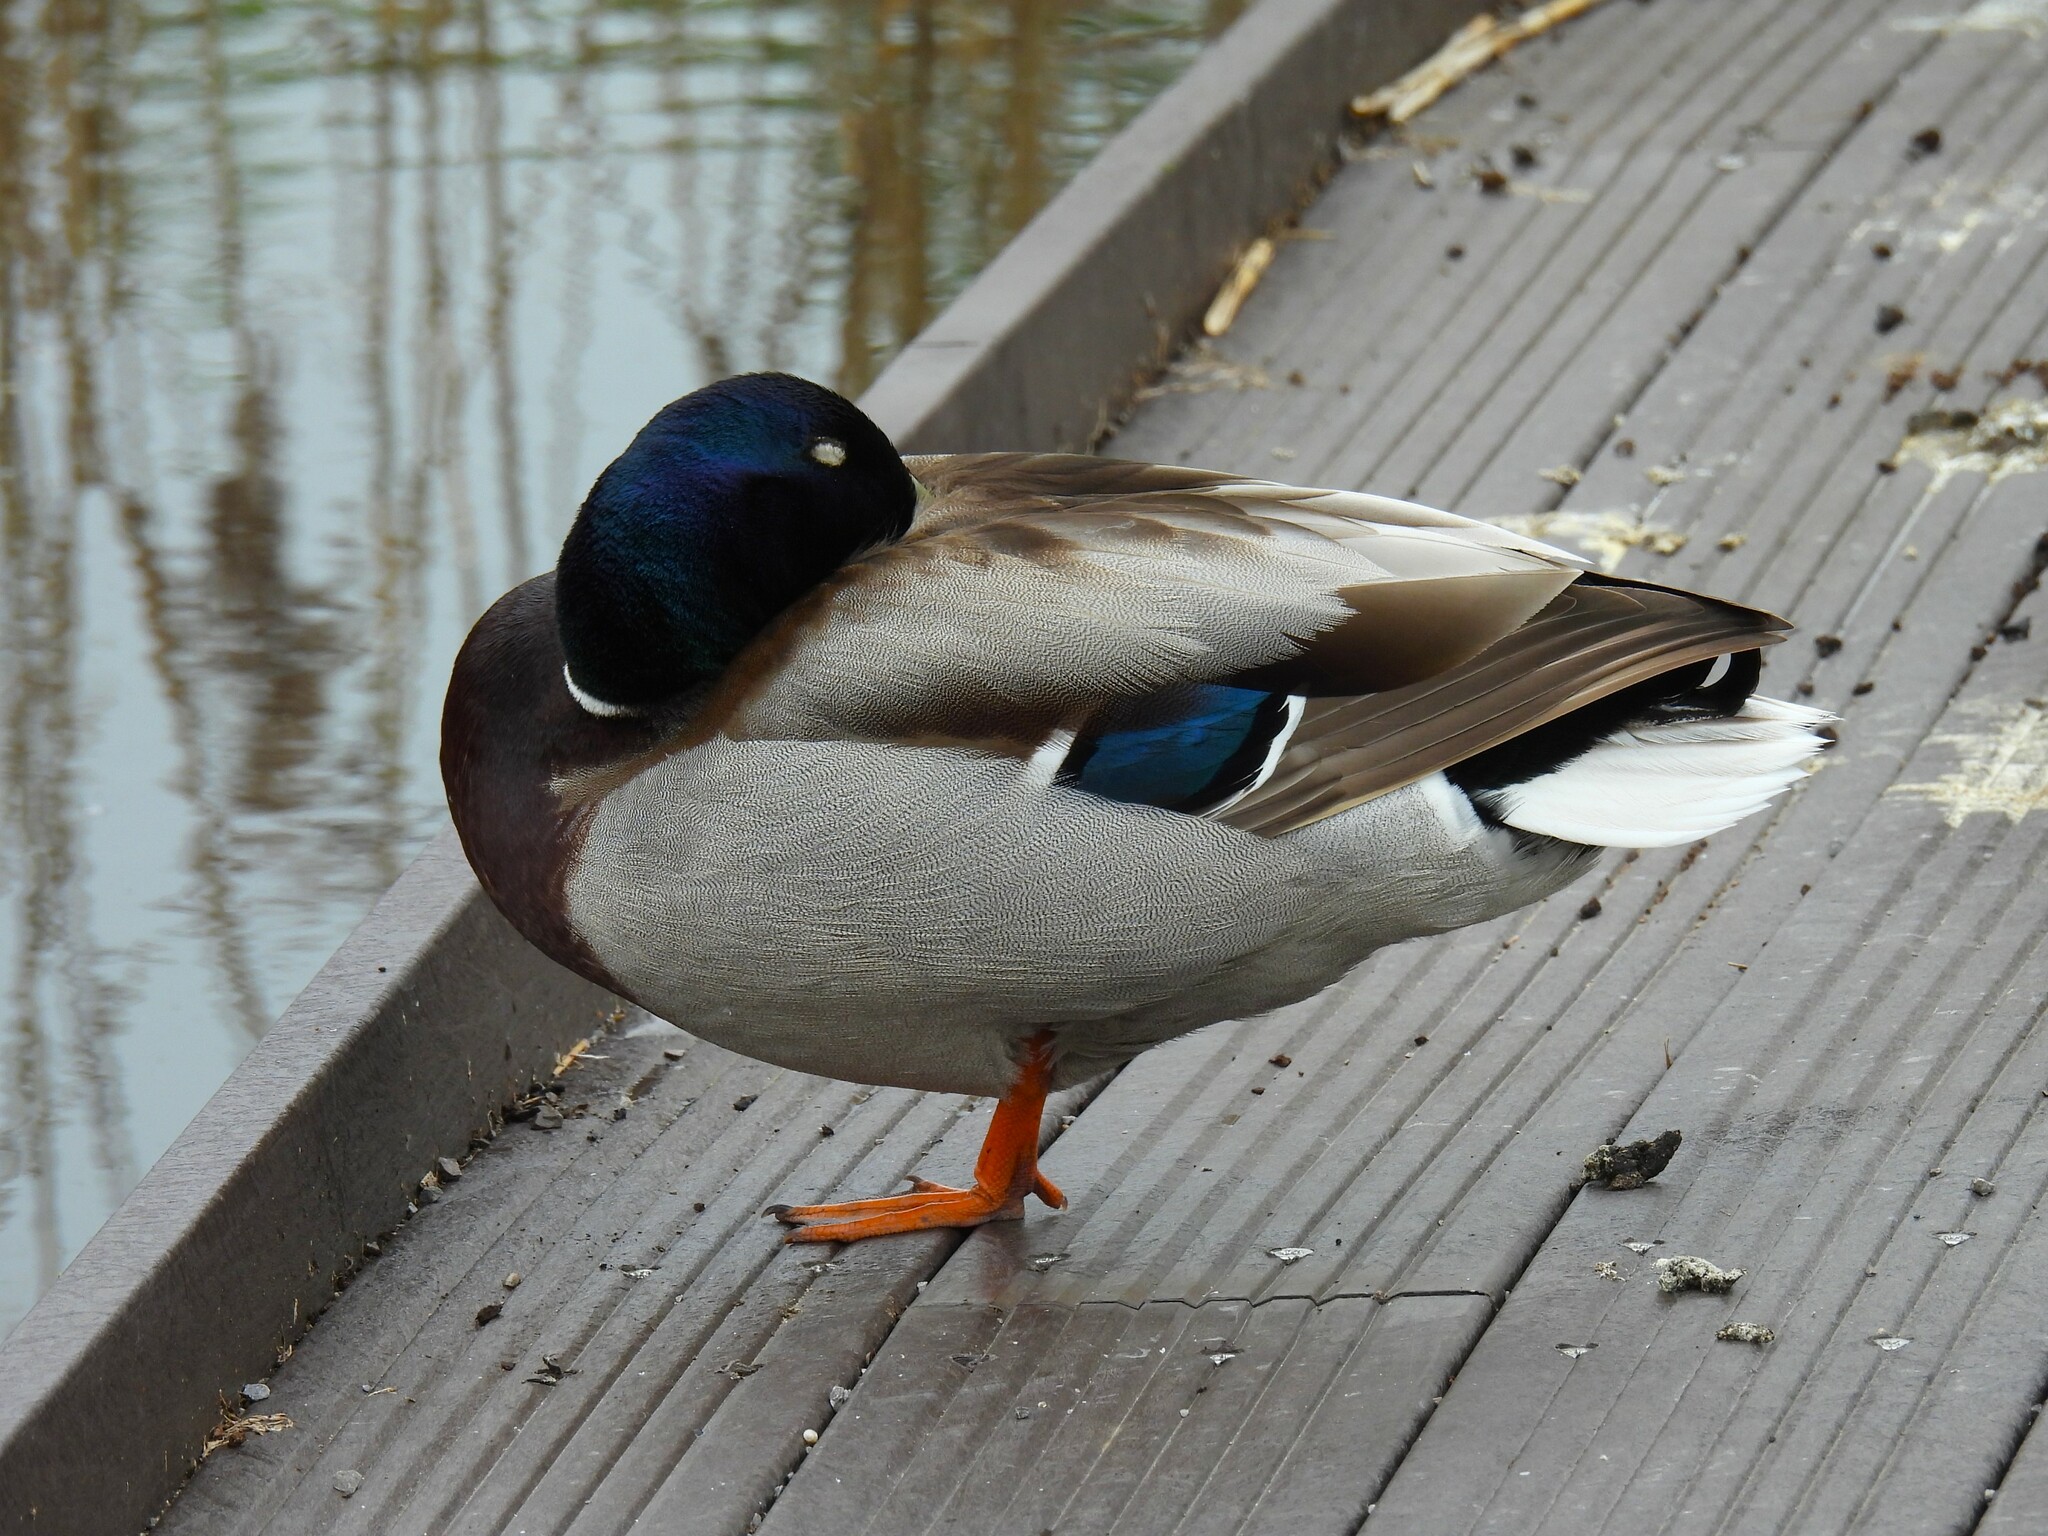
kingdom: Animalia
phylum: Chordata
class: Aves
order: Anseriformes
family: Anatidae
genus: Anas
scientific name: Anas platyrhynchos
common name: Mallard
